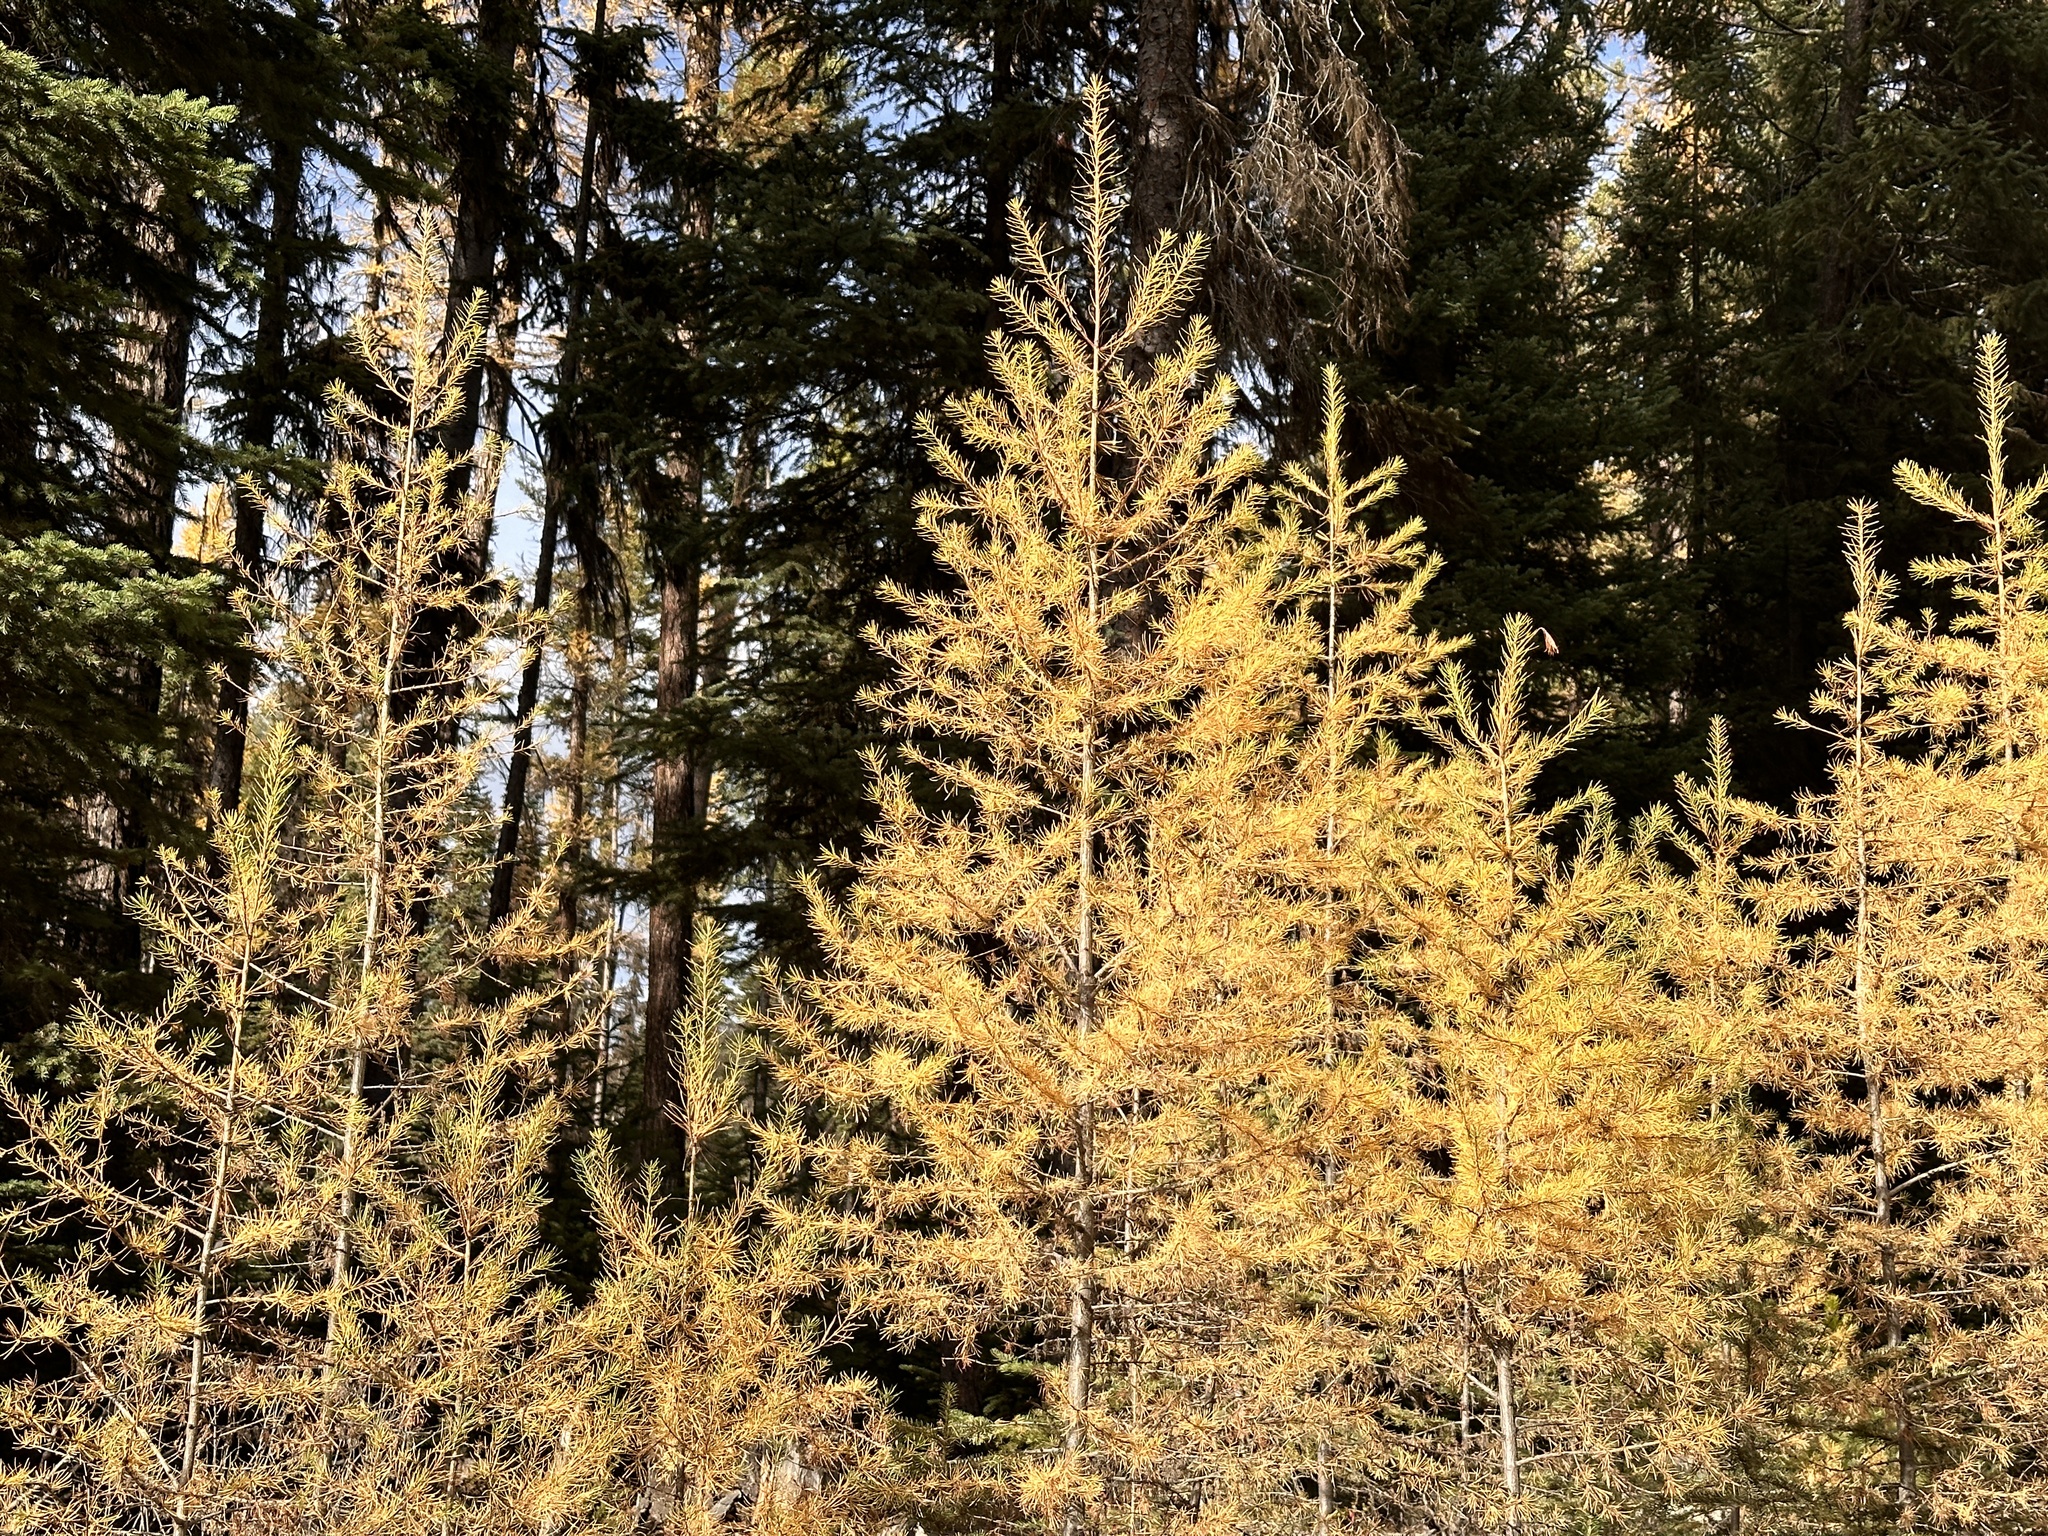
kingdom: Plantae
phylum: Tracheophyta
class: Pinopsida
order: Pinales
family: Pinaceae
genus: Larix
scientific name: Larix occidentalis
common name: Western larch
